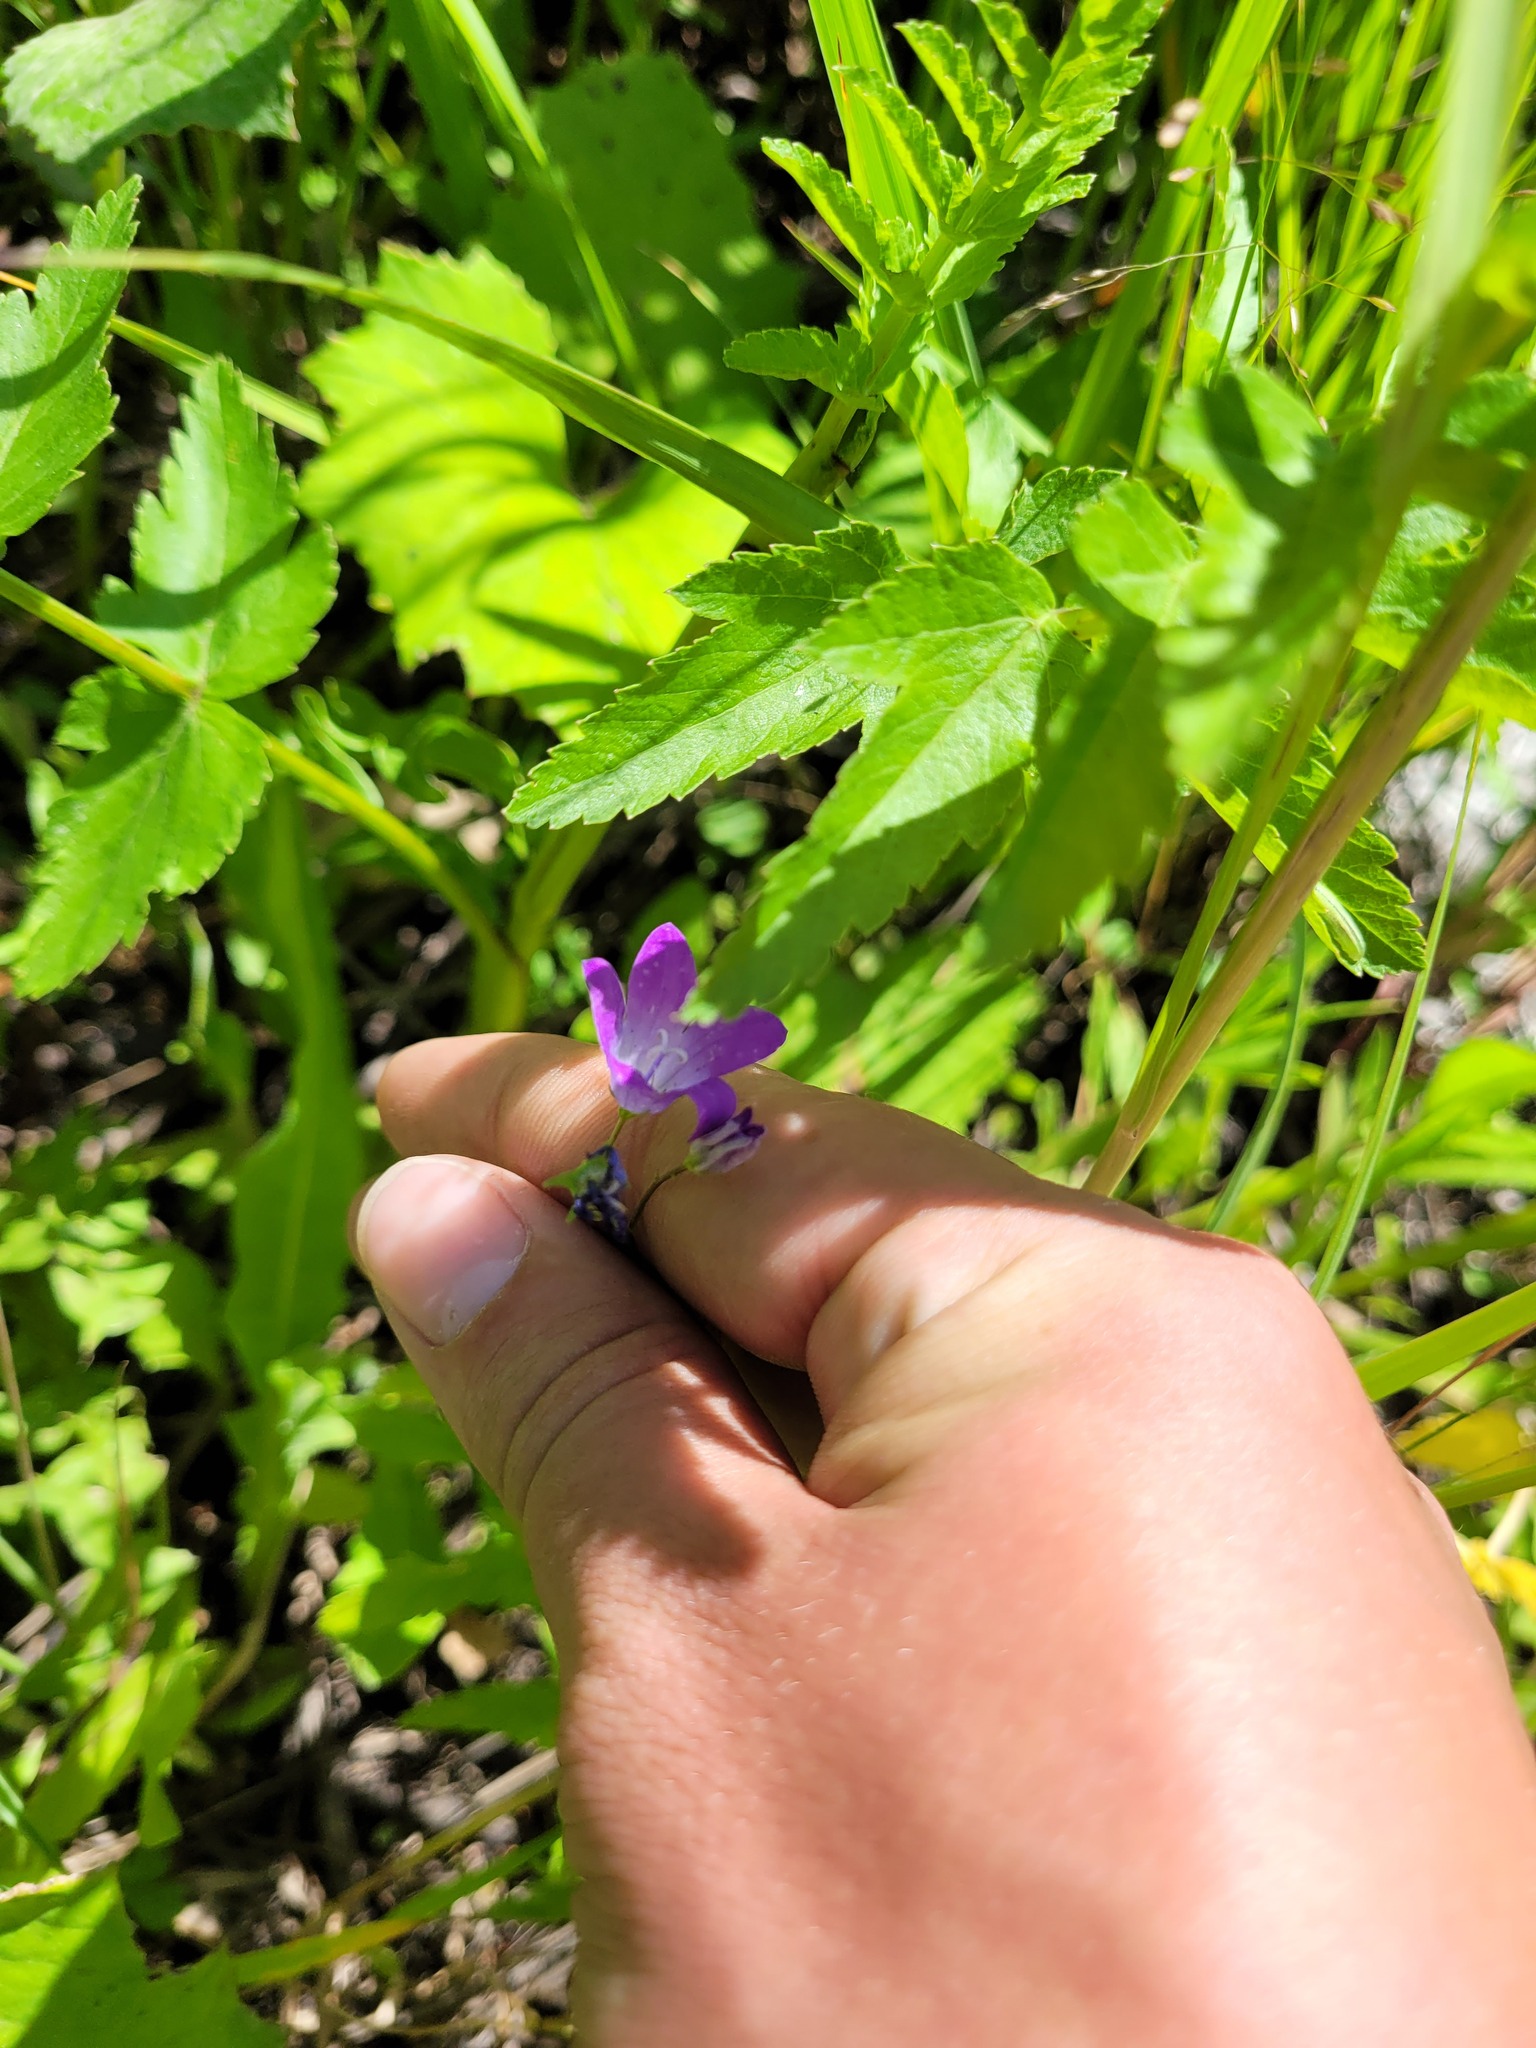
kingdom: Plantae
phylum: Tracheophyta
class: Magnoliopsida
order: Asterales
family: Campanulaceae
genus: Campanula
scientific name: Campanula patula
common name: Spreading bellflower
